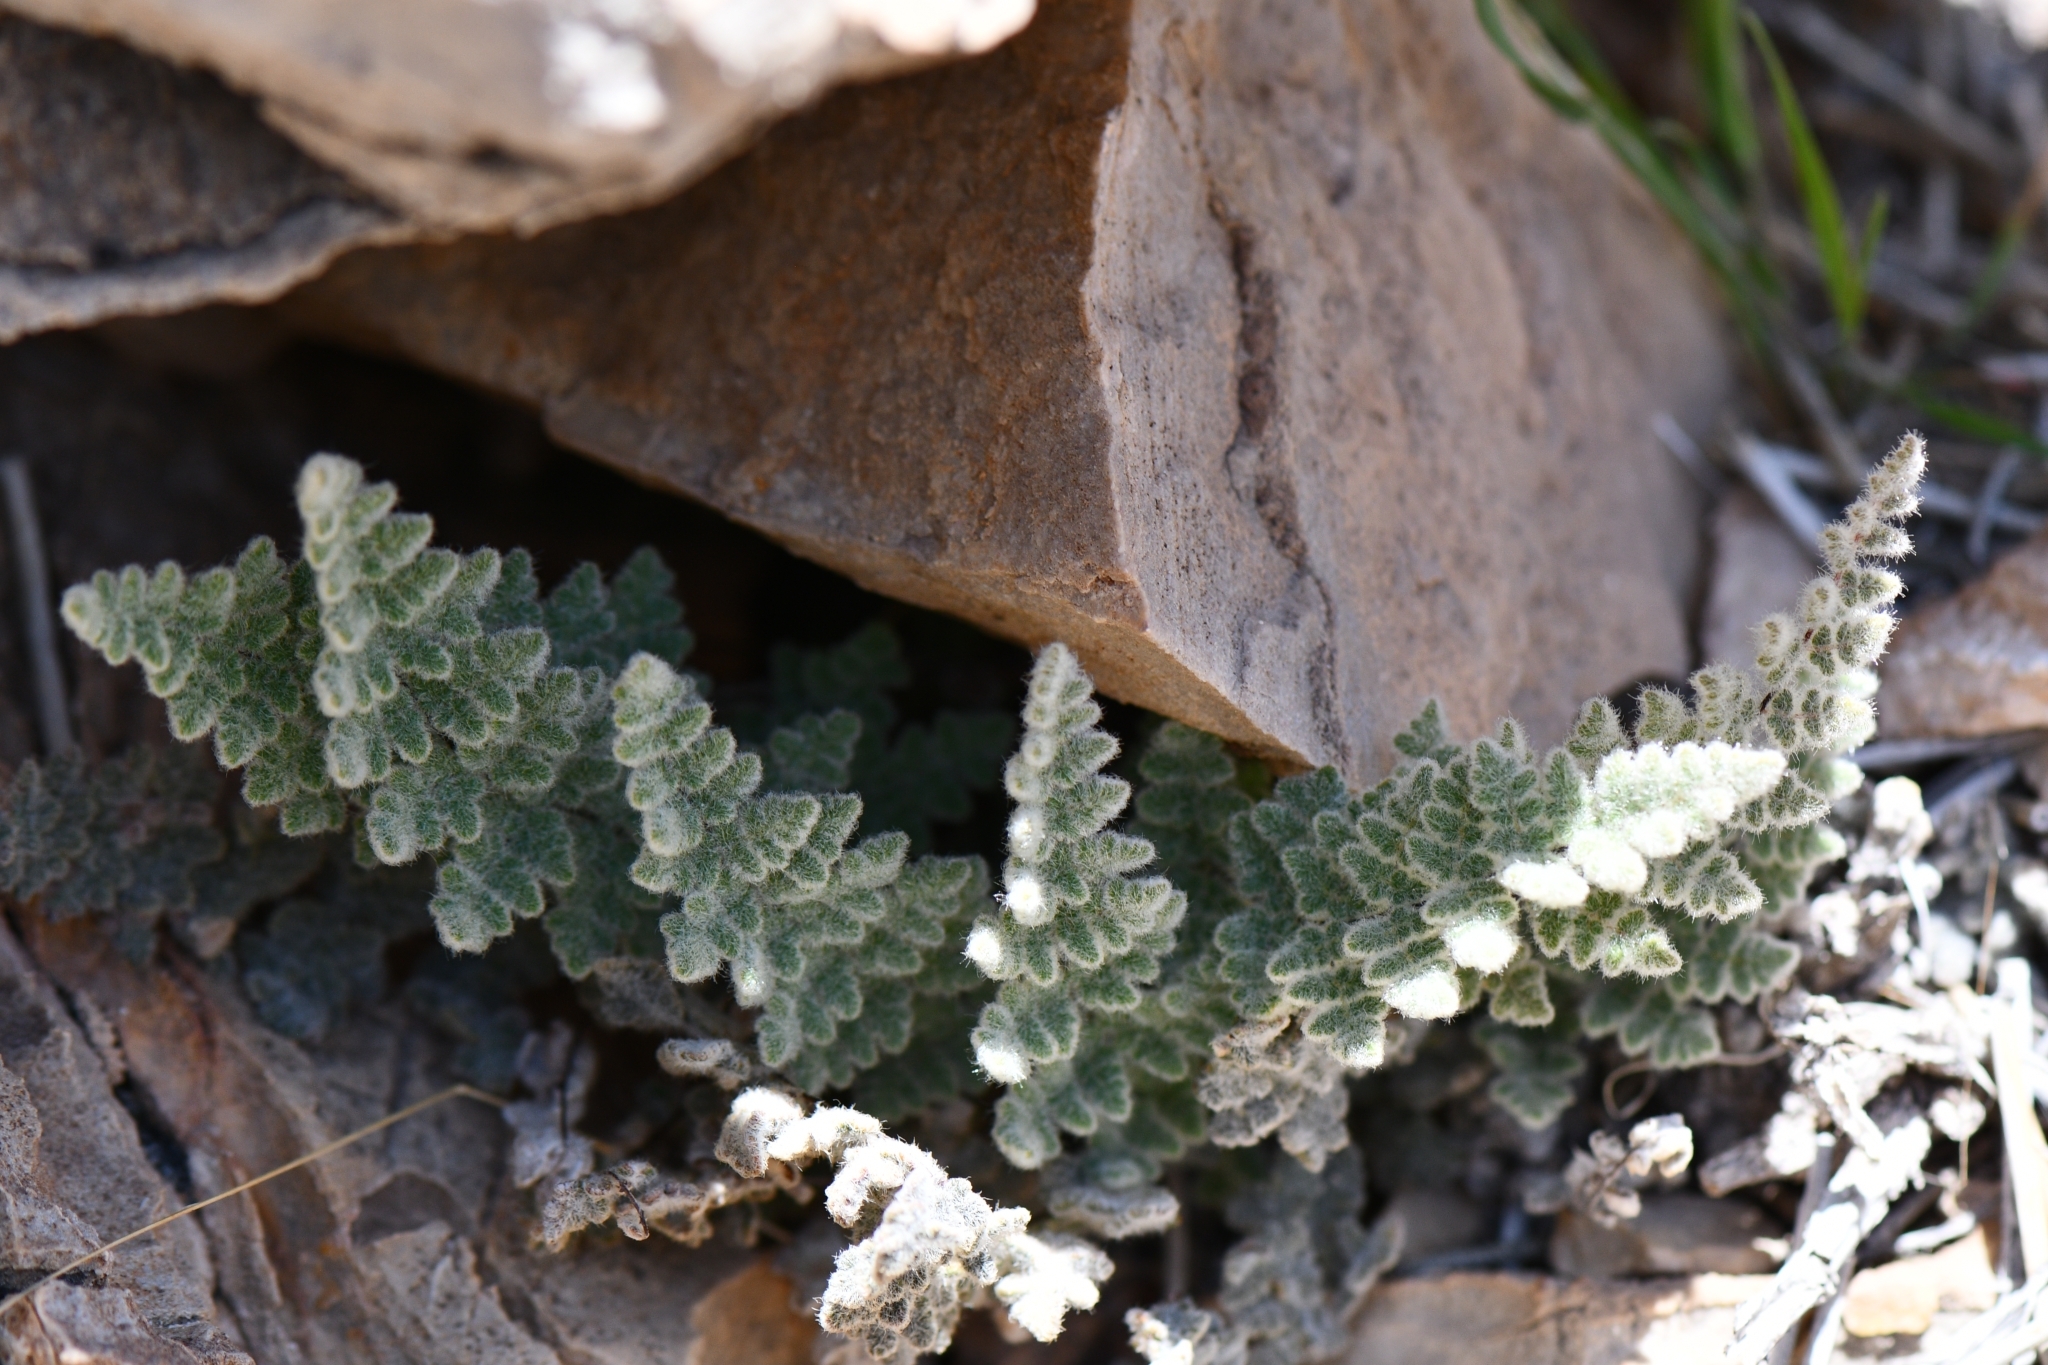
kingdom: Plantae
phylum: Tracheophyta
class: Polypodiopsida
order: Polypodiales
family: Pteridaceae
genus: Myriopteris
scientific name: Myriopteris parryi
